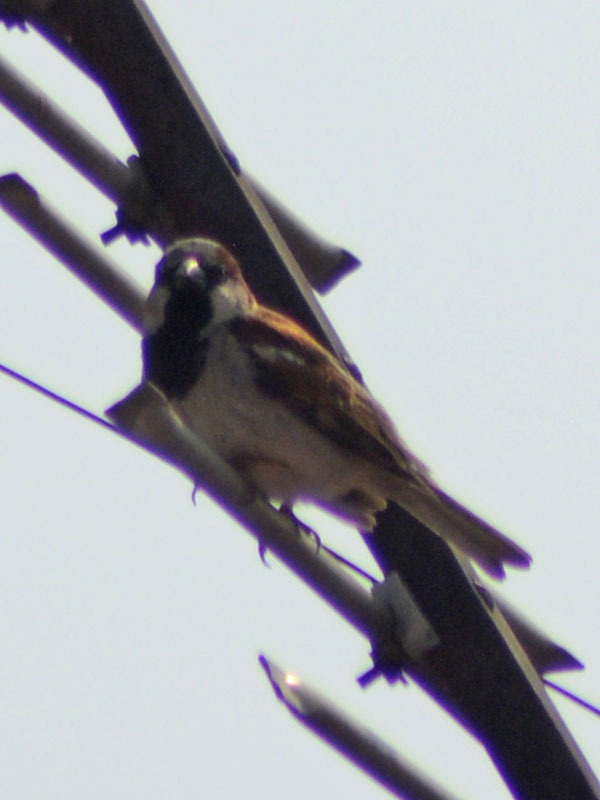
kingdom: Animalia
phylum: Chordata
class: Aves
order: Passeriformes
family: Passeridae
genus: Passer
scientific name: Passer domesticus
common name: House sparrow
